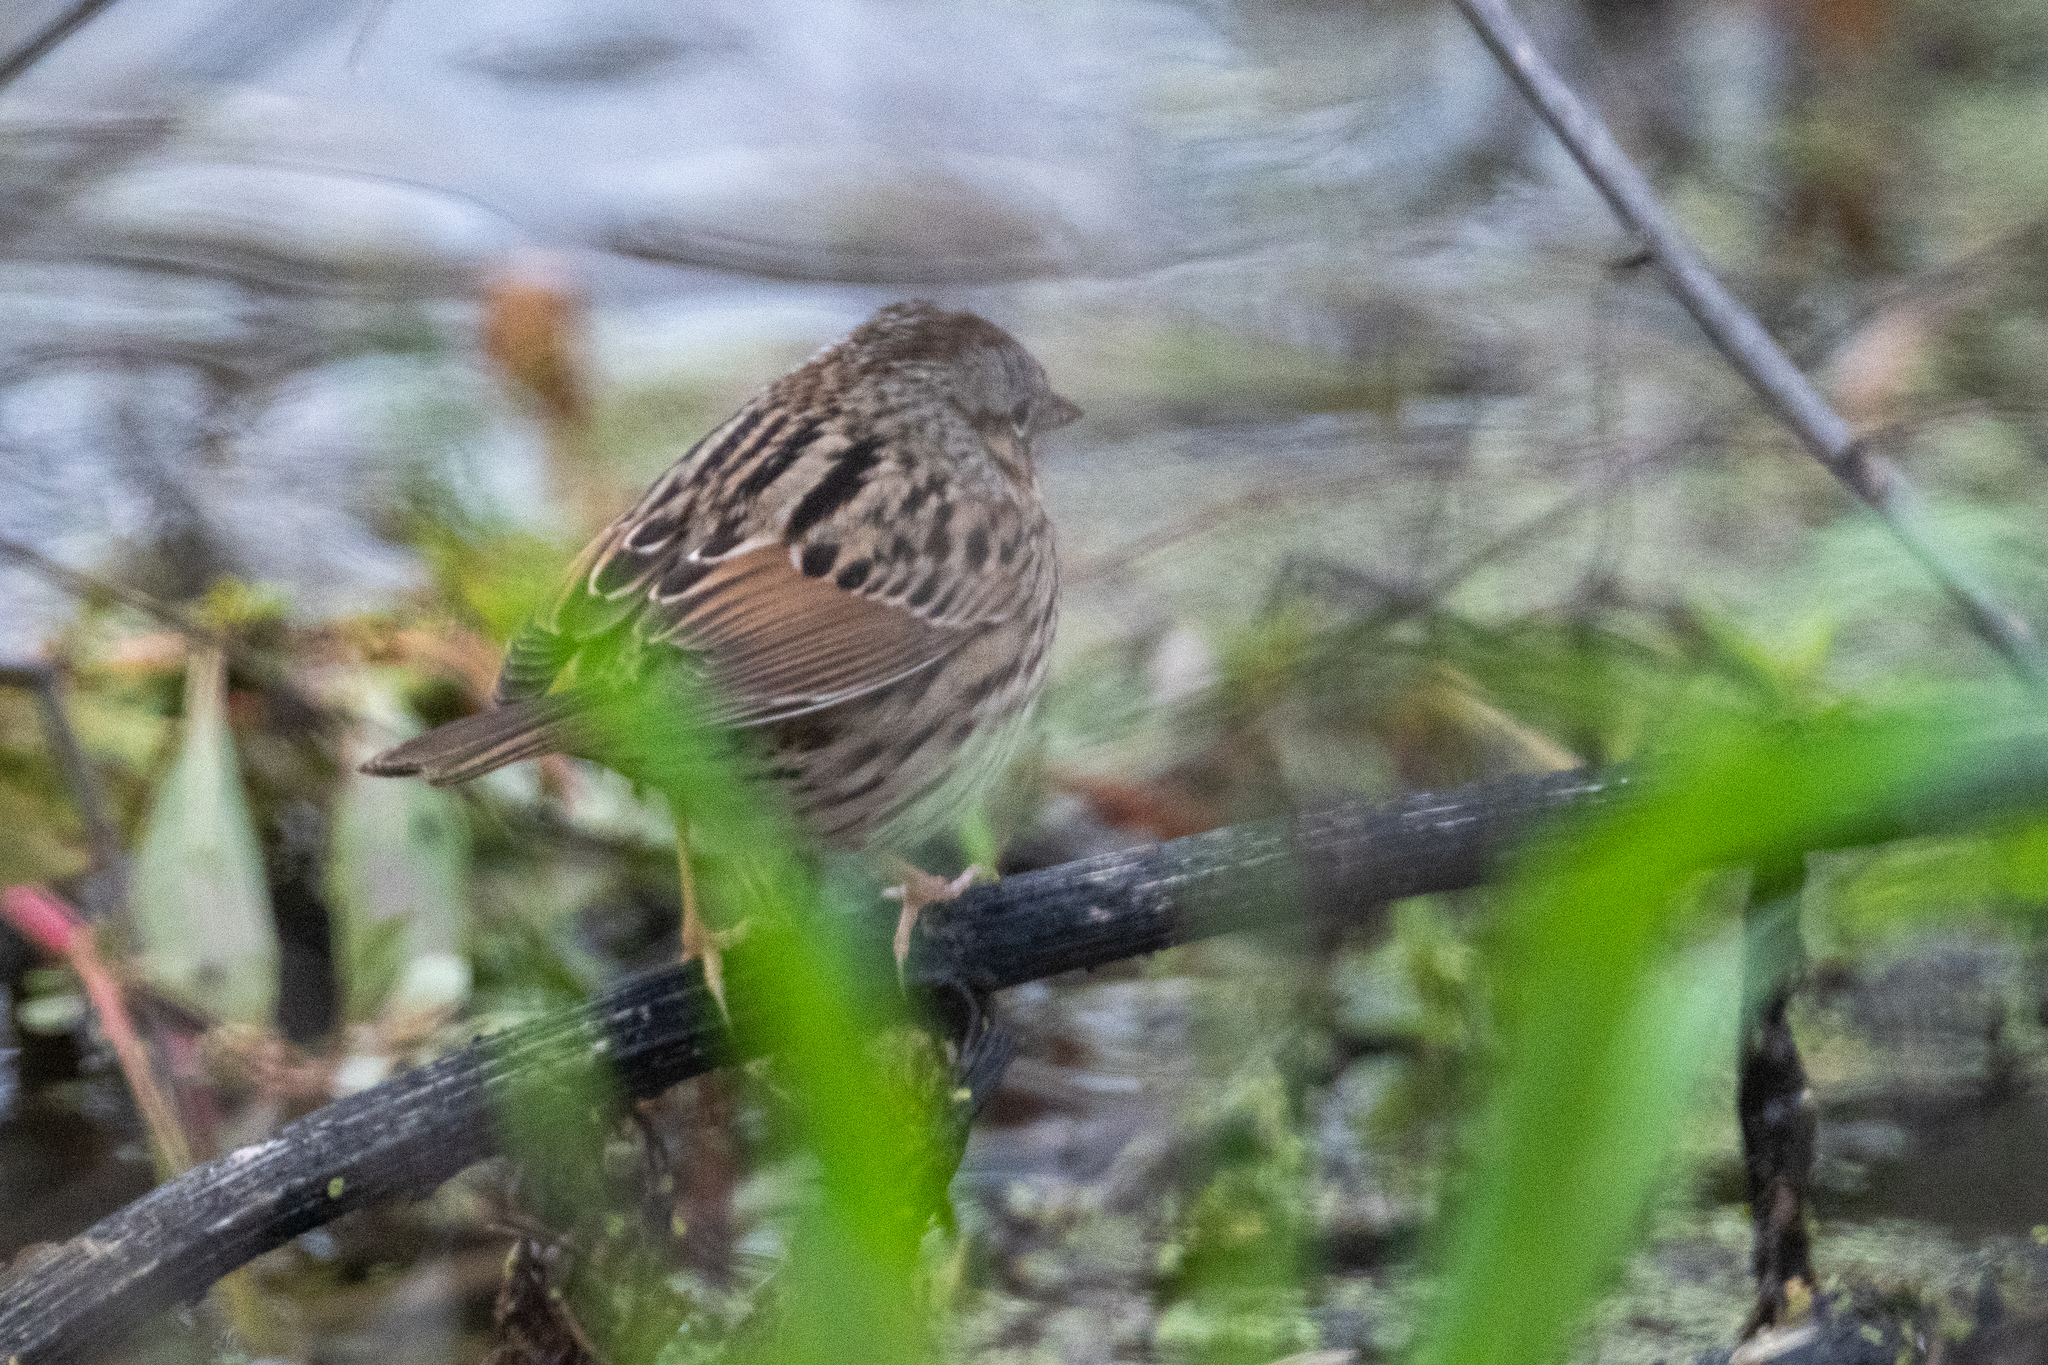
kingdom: Animalia
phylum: Chordata
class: Aves
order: Passeriformes
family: Passerellidae
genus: Melospiza
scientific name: Melospiza lincolnii
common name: Lincoln's sparrow
